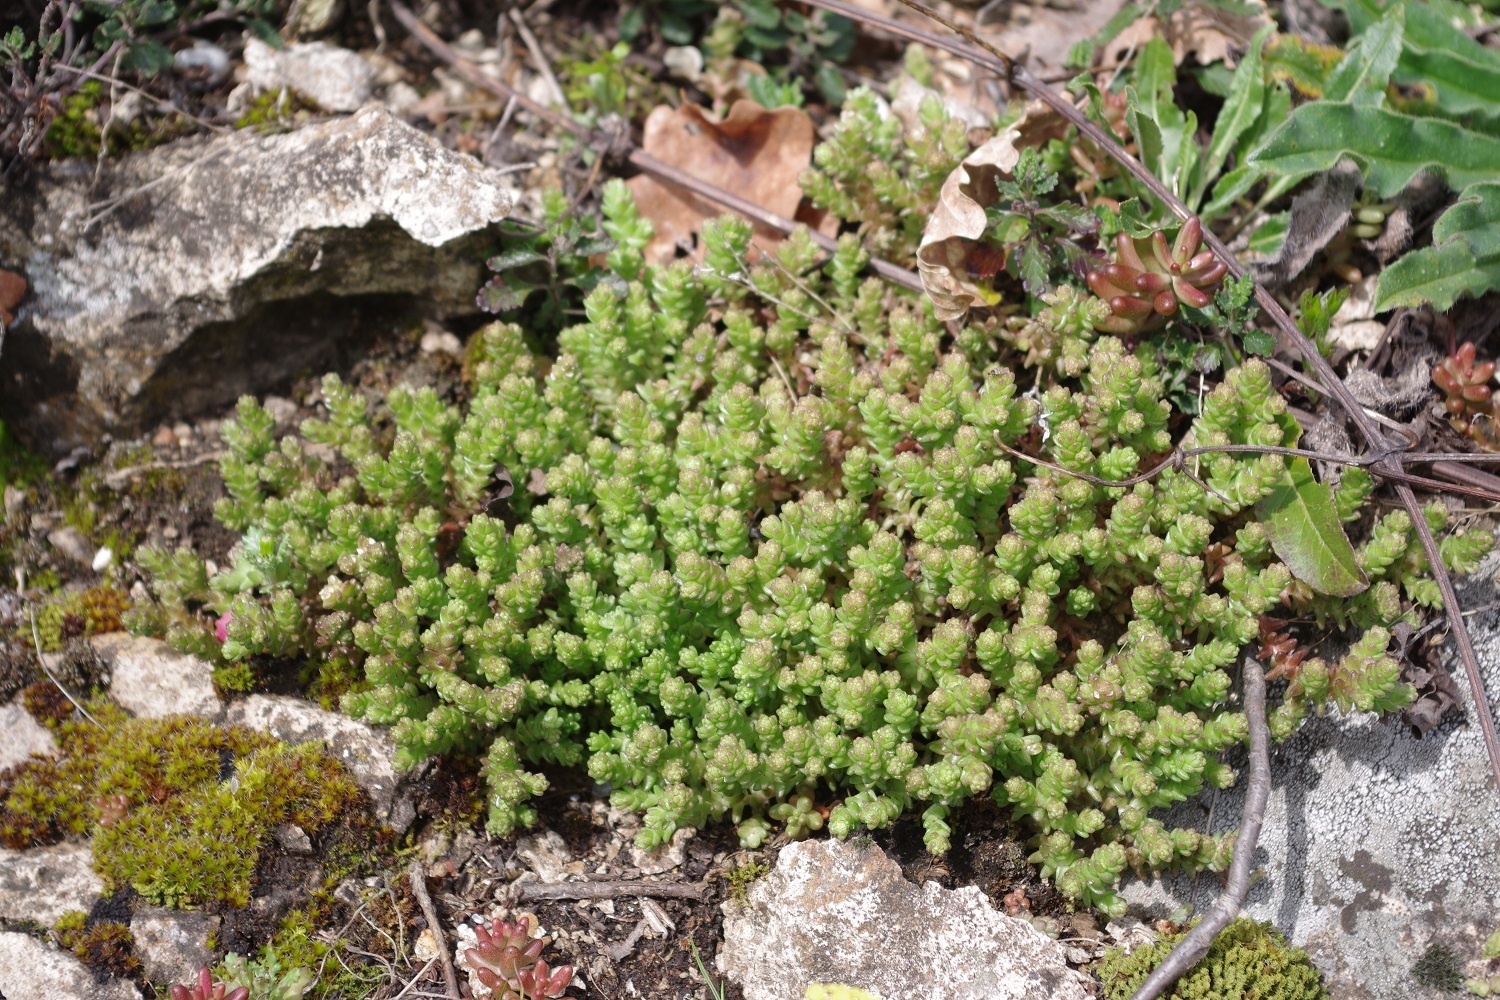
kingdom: Plantae
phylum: Tracheophyta
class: Magnoliopsida
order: Saxifragales
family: Crassulaceae
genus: Sedum
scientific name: Sedum acre
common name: Biting stonecrop
